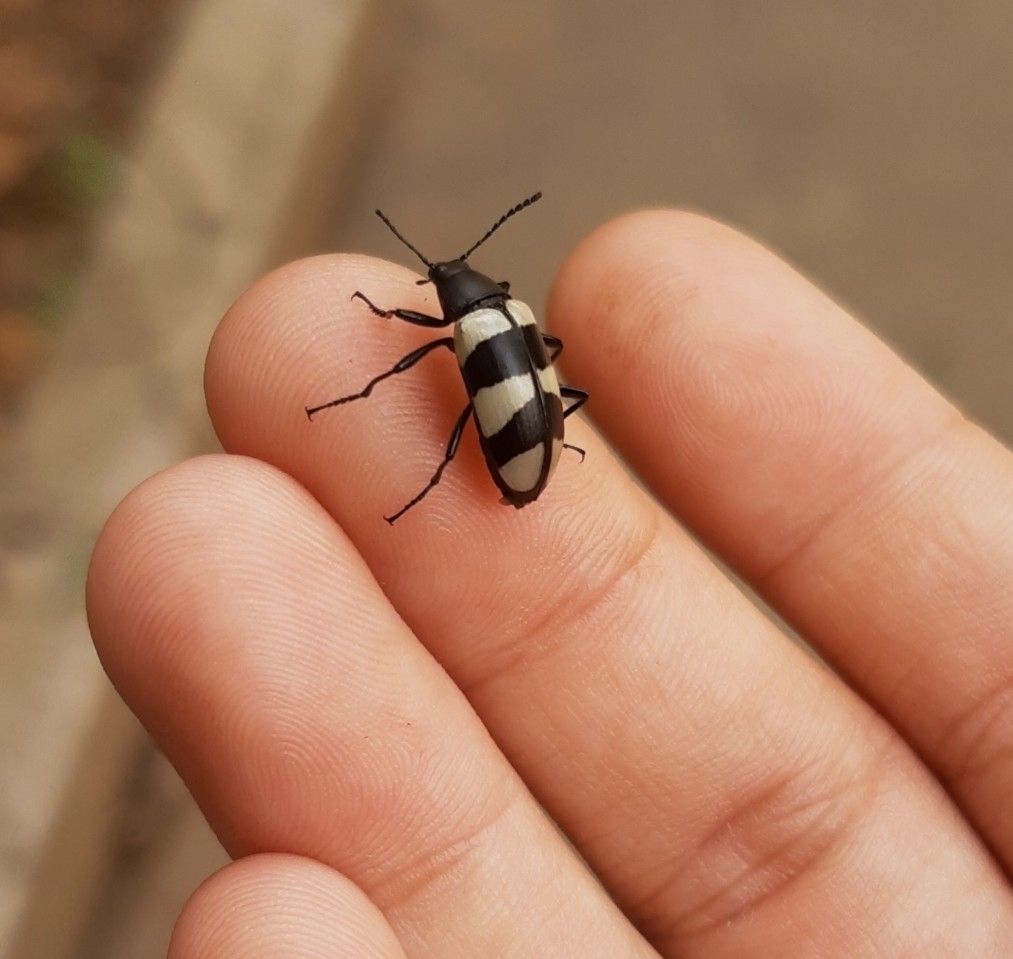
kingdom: Animalia
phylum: Arthropoda
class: Insecta
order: Coleoptera
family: Tenebrionidae
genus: Poecilesthus
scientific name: Poecilesthus
